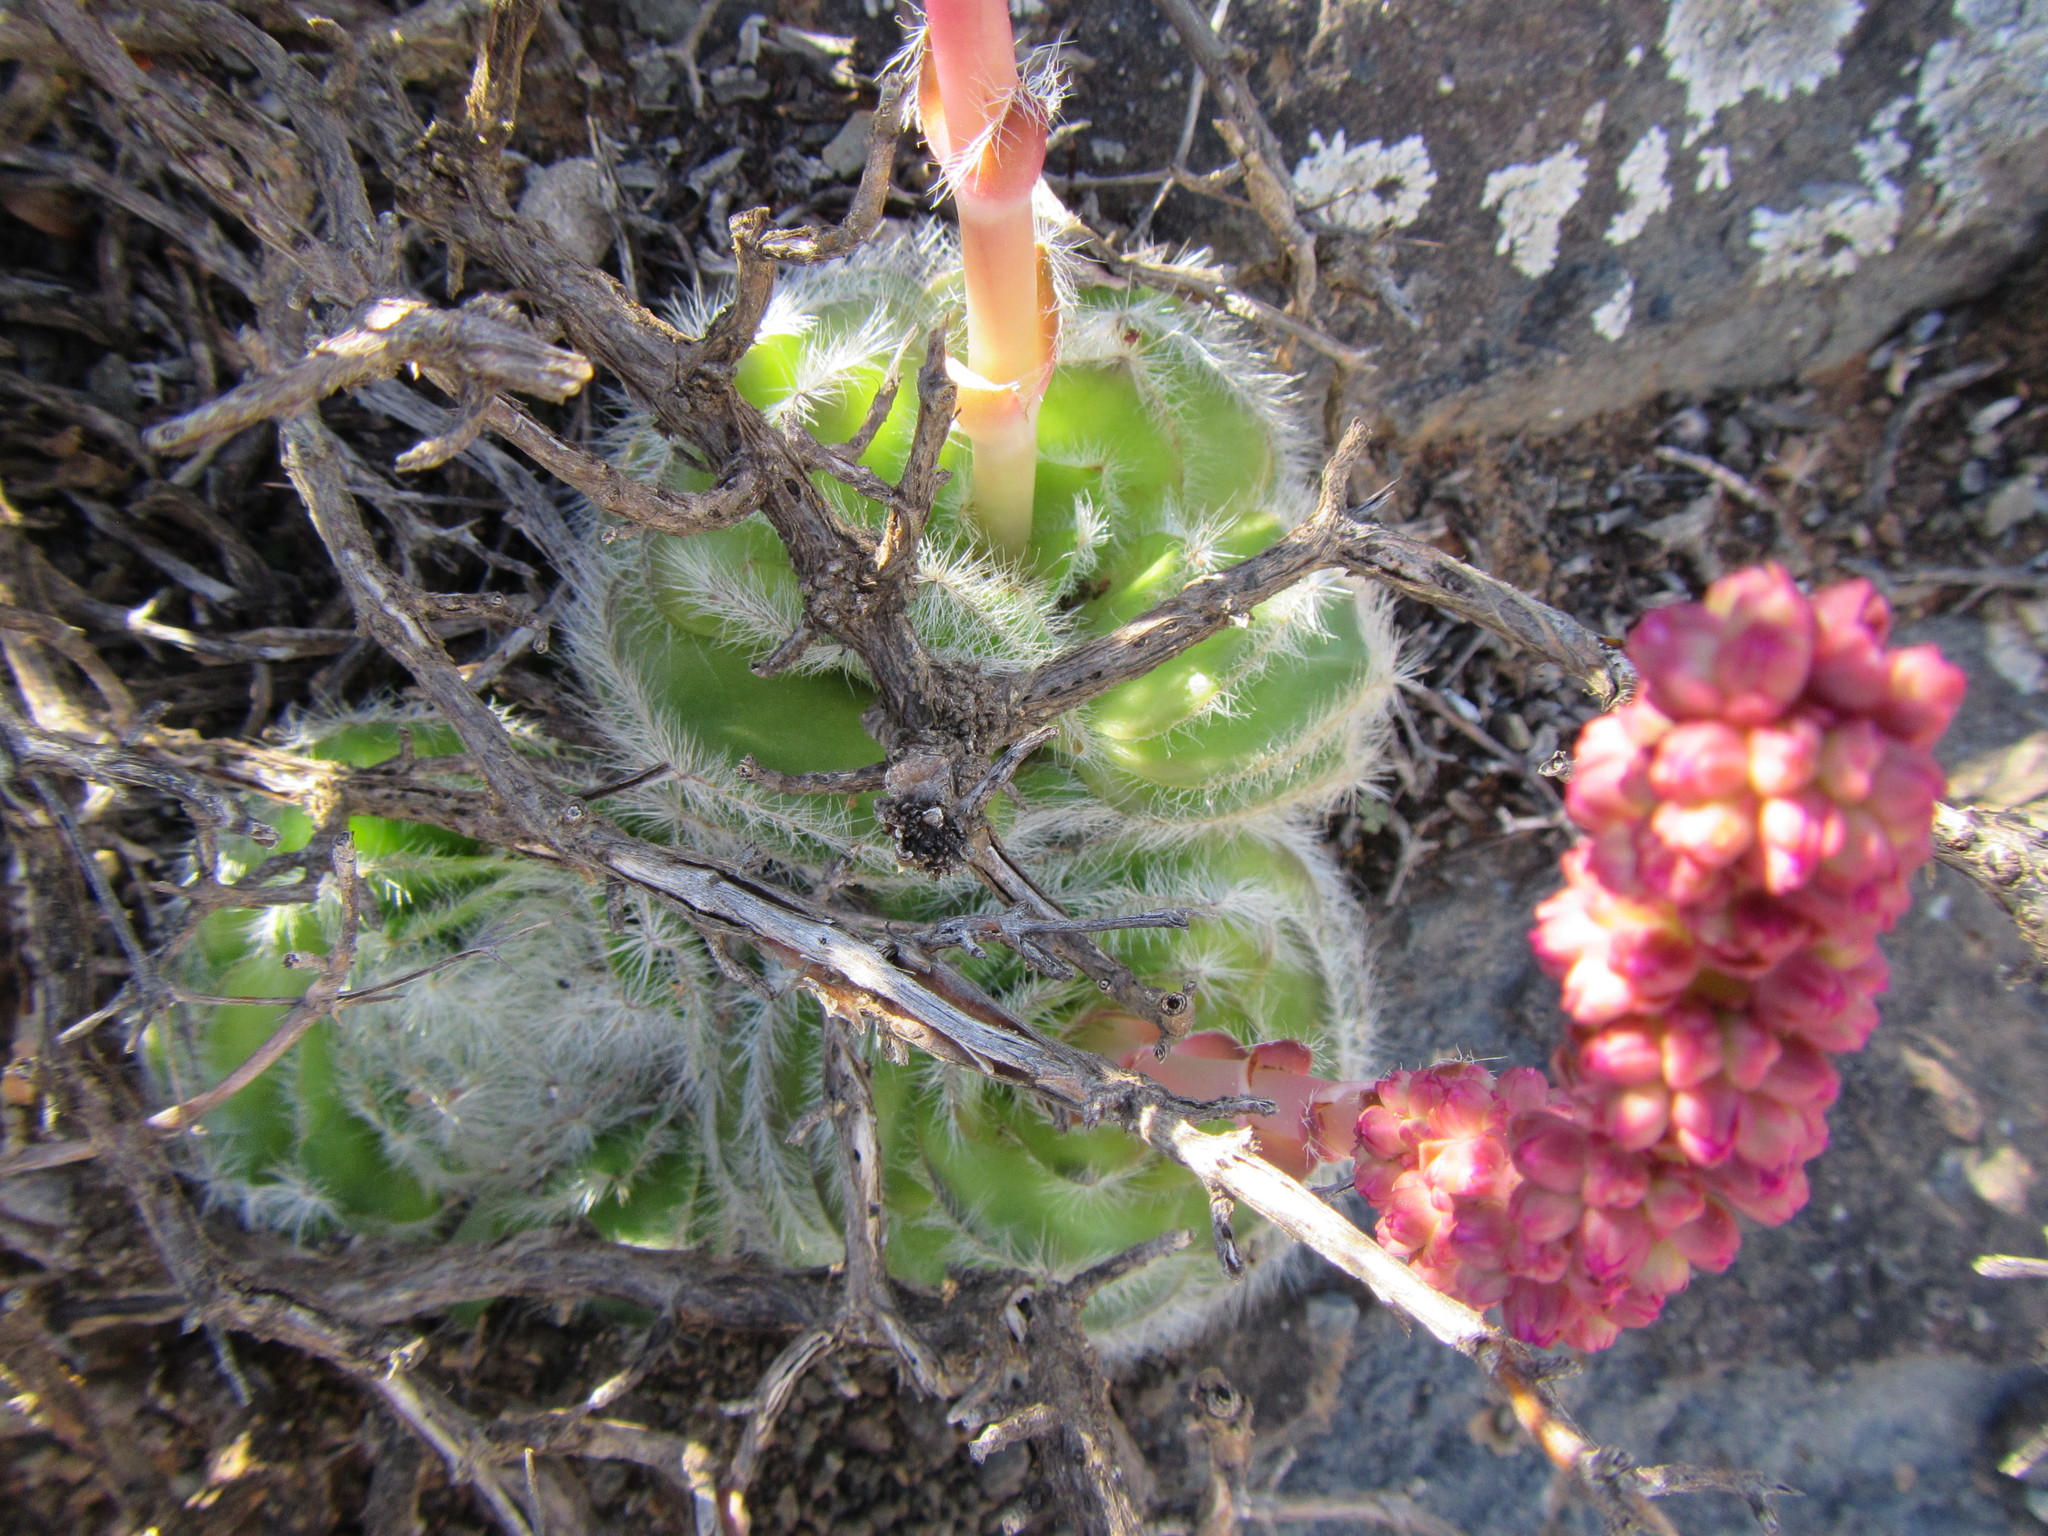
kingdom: Plantae
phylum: Tracheophyta
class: Magnoliopsida
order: Saxifragales
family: Crassulaceae
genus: Crassula
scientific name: Crassula barbata
